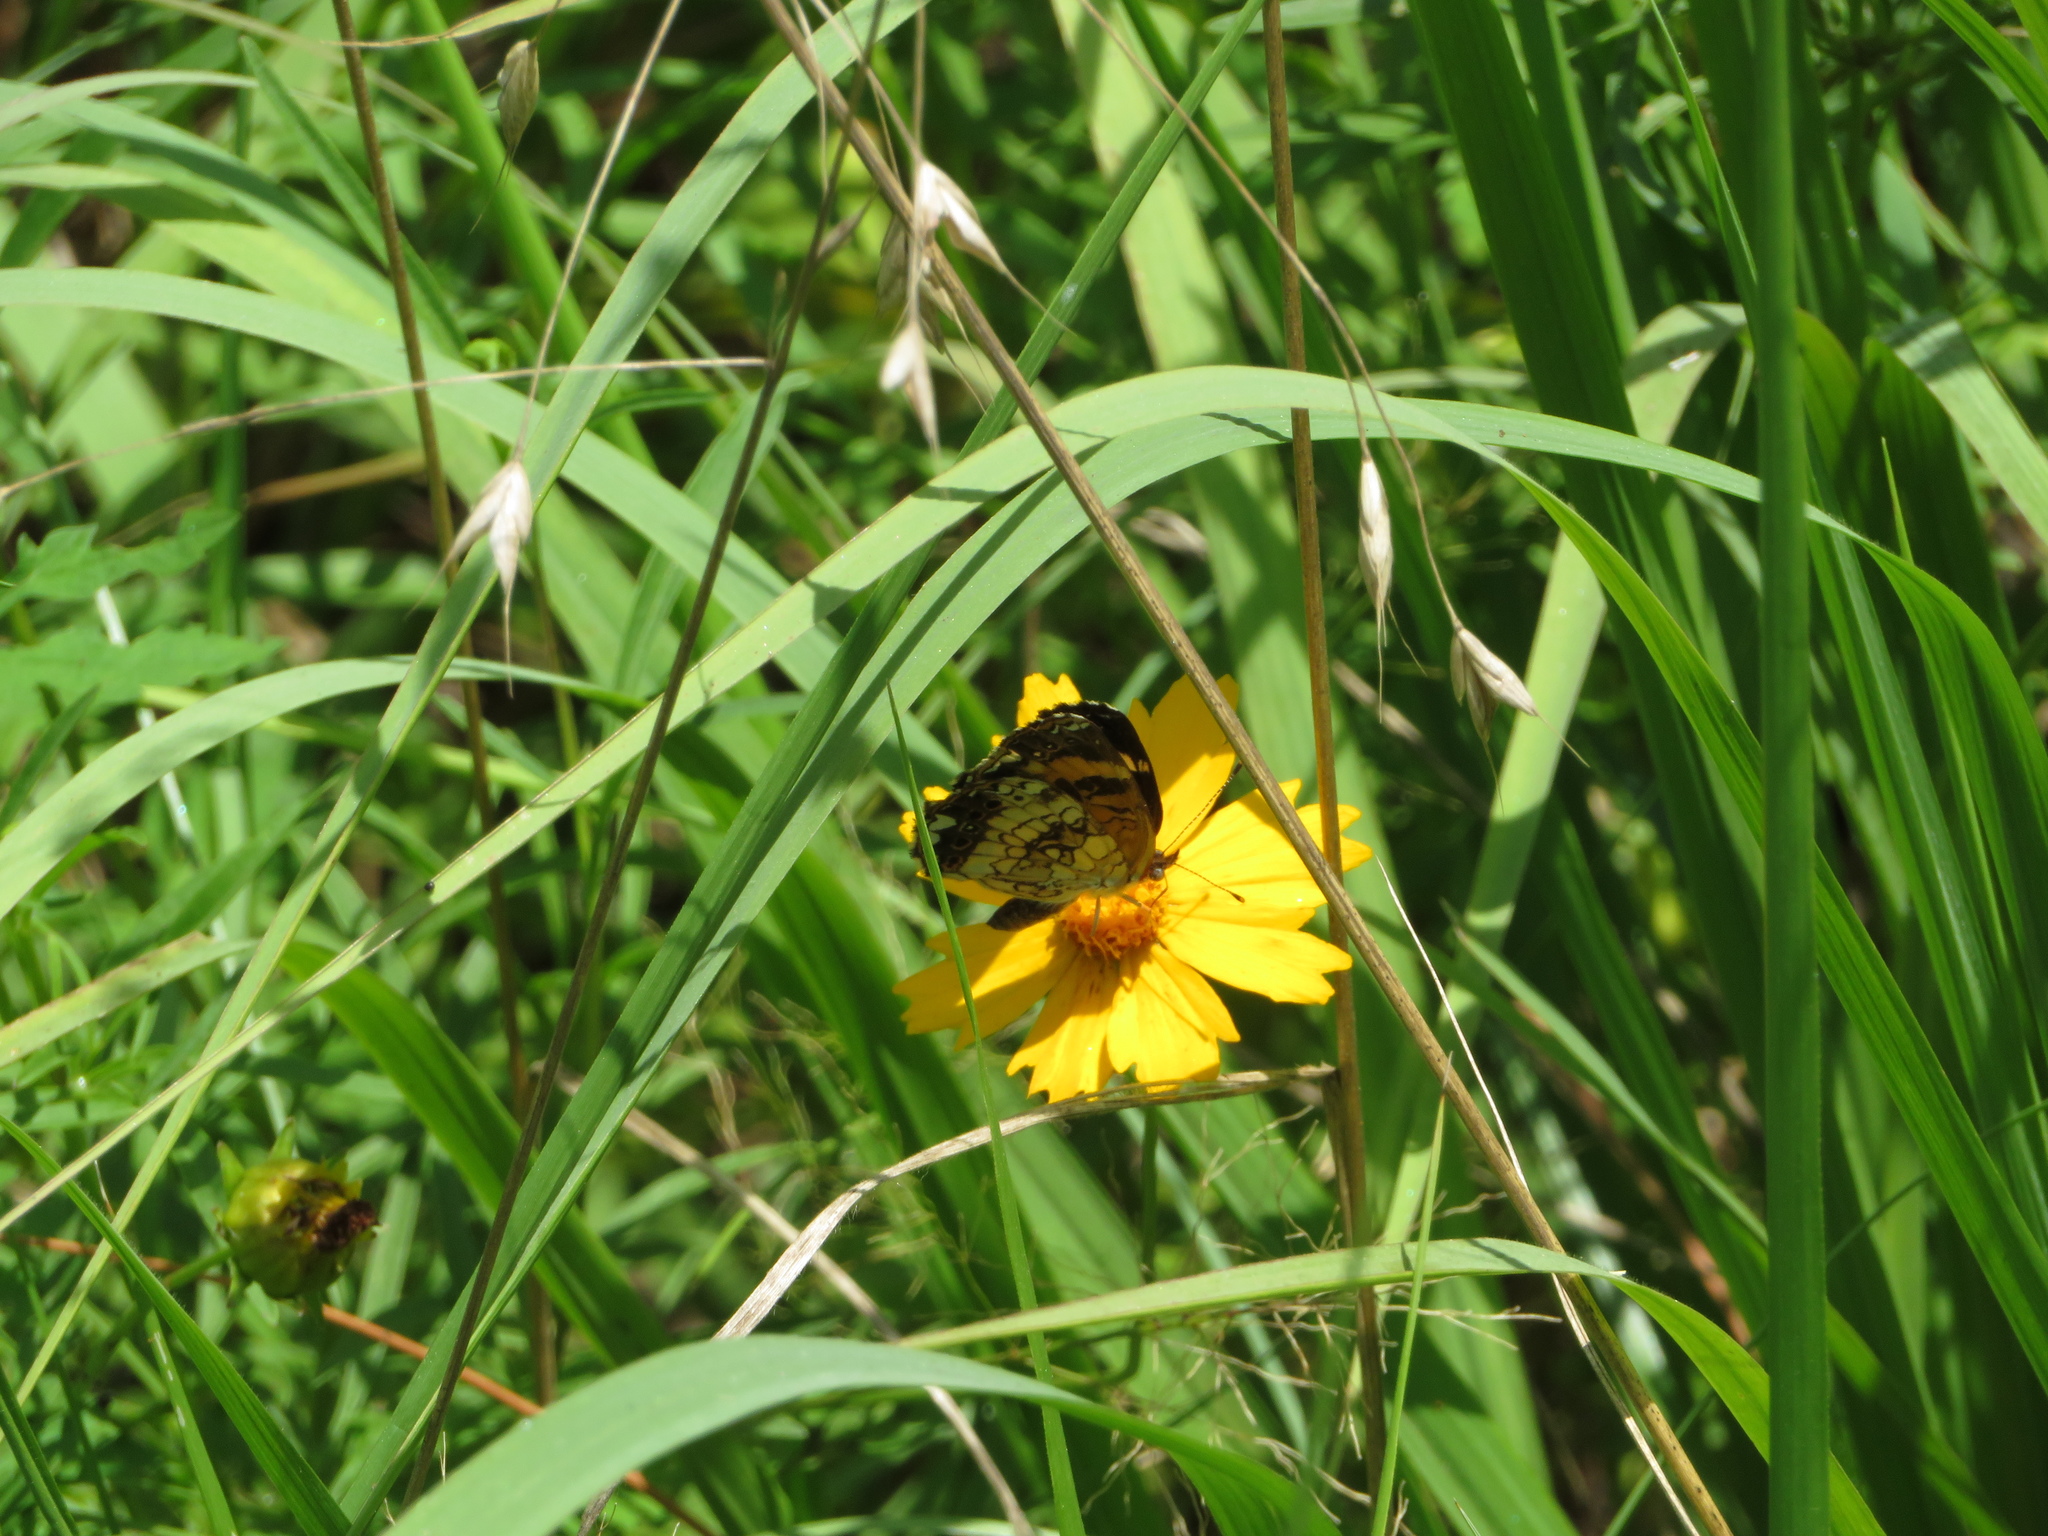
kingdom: Animalia
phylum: Arthropoda
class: Insecta
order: Lepidoptera
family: Nymphalidae
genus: Chlosyne
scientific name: Chlosyne nycteis
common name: Silvery checkerspot
